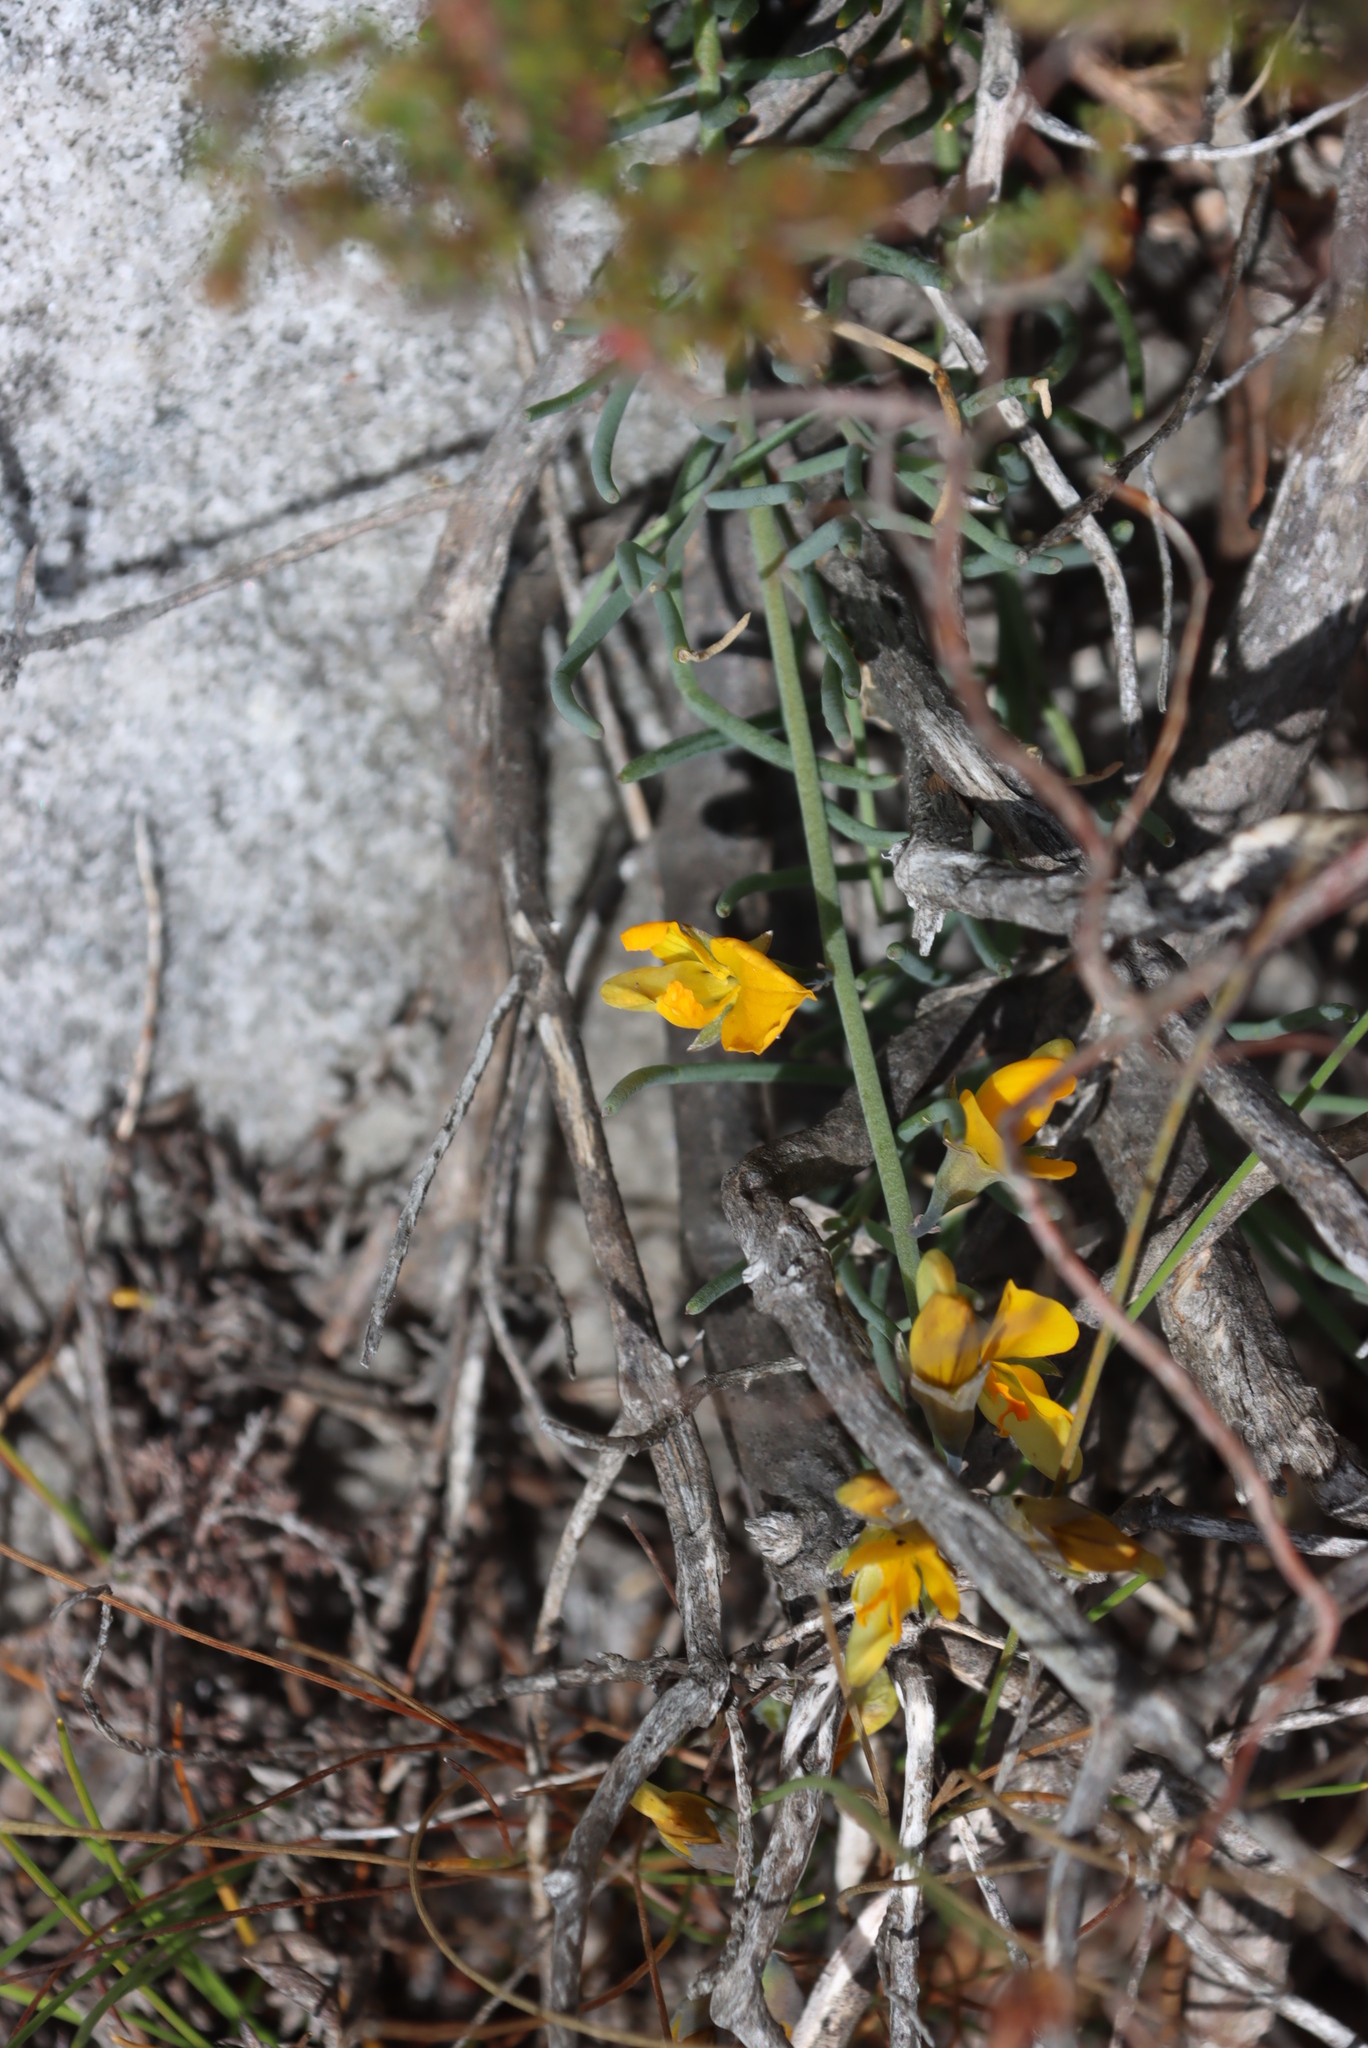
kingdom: Plantae
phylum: Tracheophyta
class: Magnoliopsida
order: Fabales
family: Fabaceae
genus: Lebeckia
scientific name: Lebeckia meyeriana
